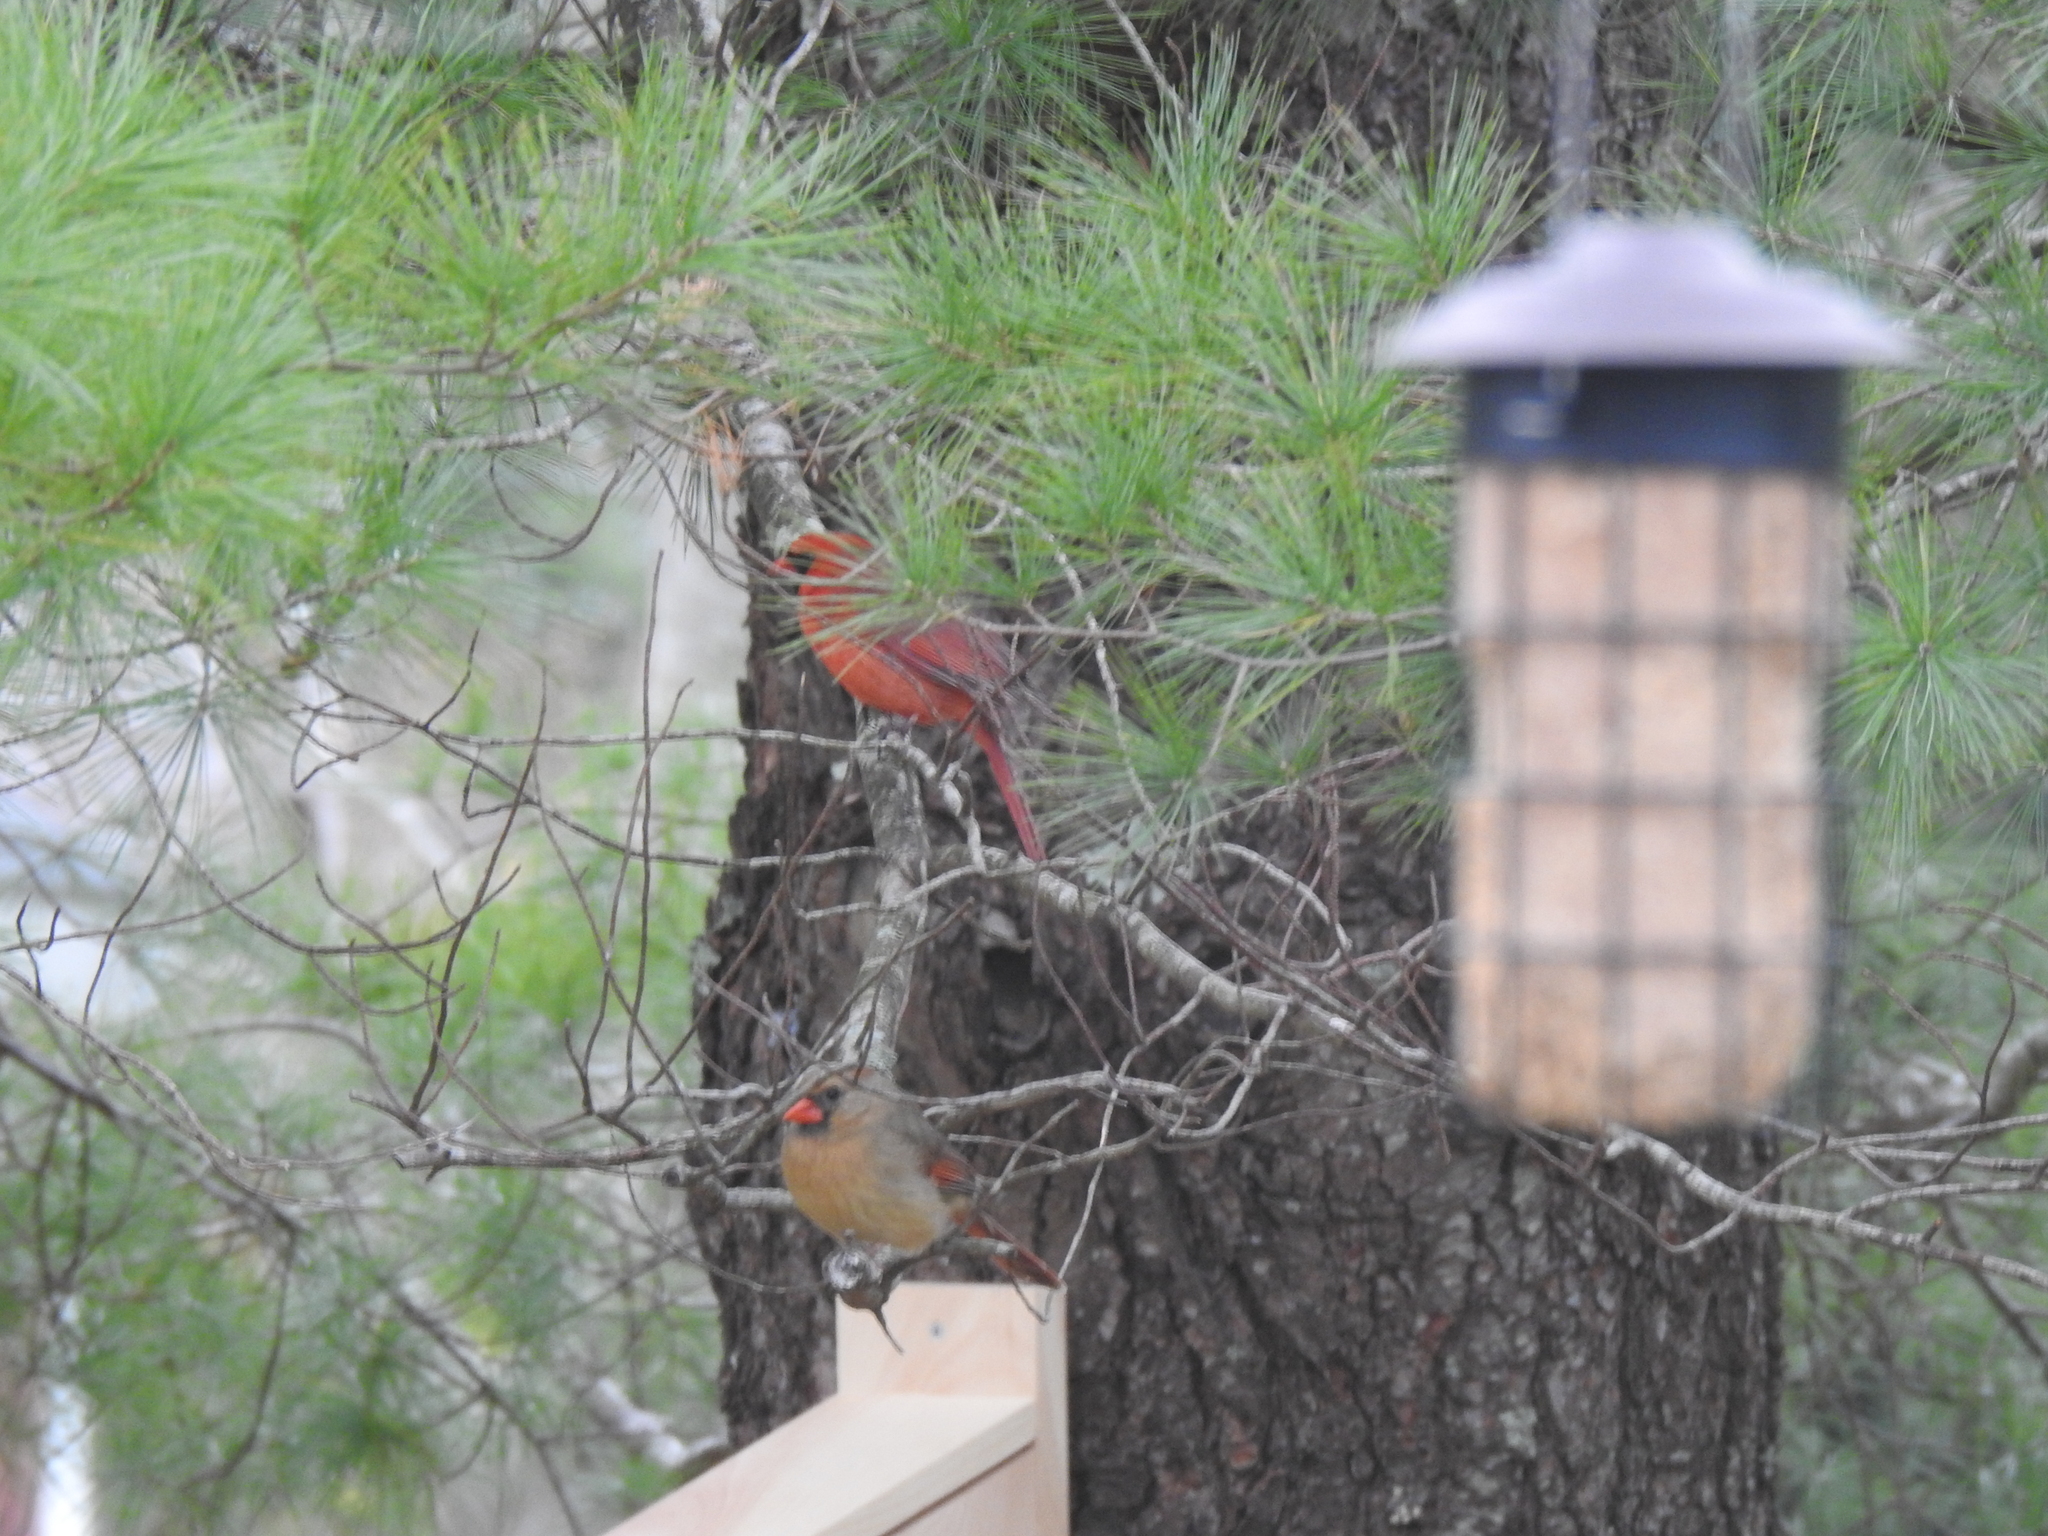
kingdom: Animalia
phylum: Chordata
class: Aves
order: Passeriformes
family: Cardinalidae
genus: Cardinalis
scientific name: Cardinalis cardinalis
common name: Northern cardinal
